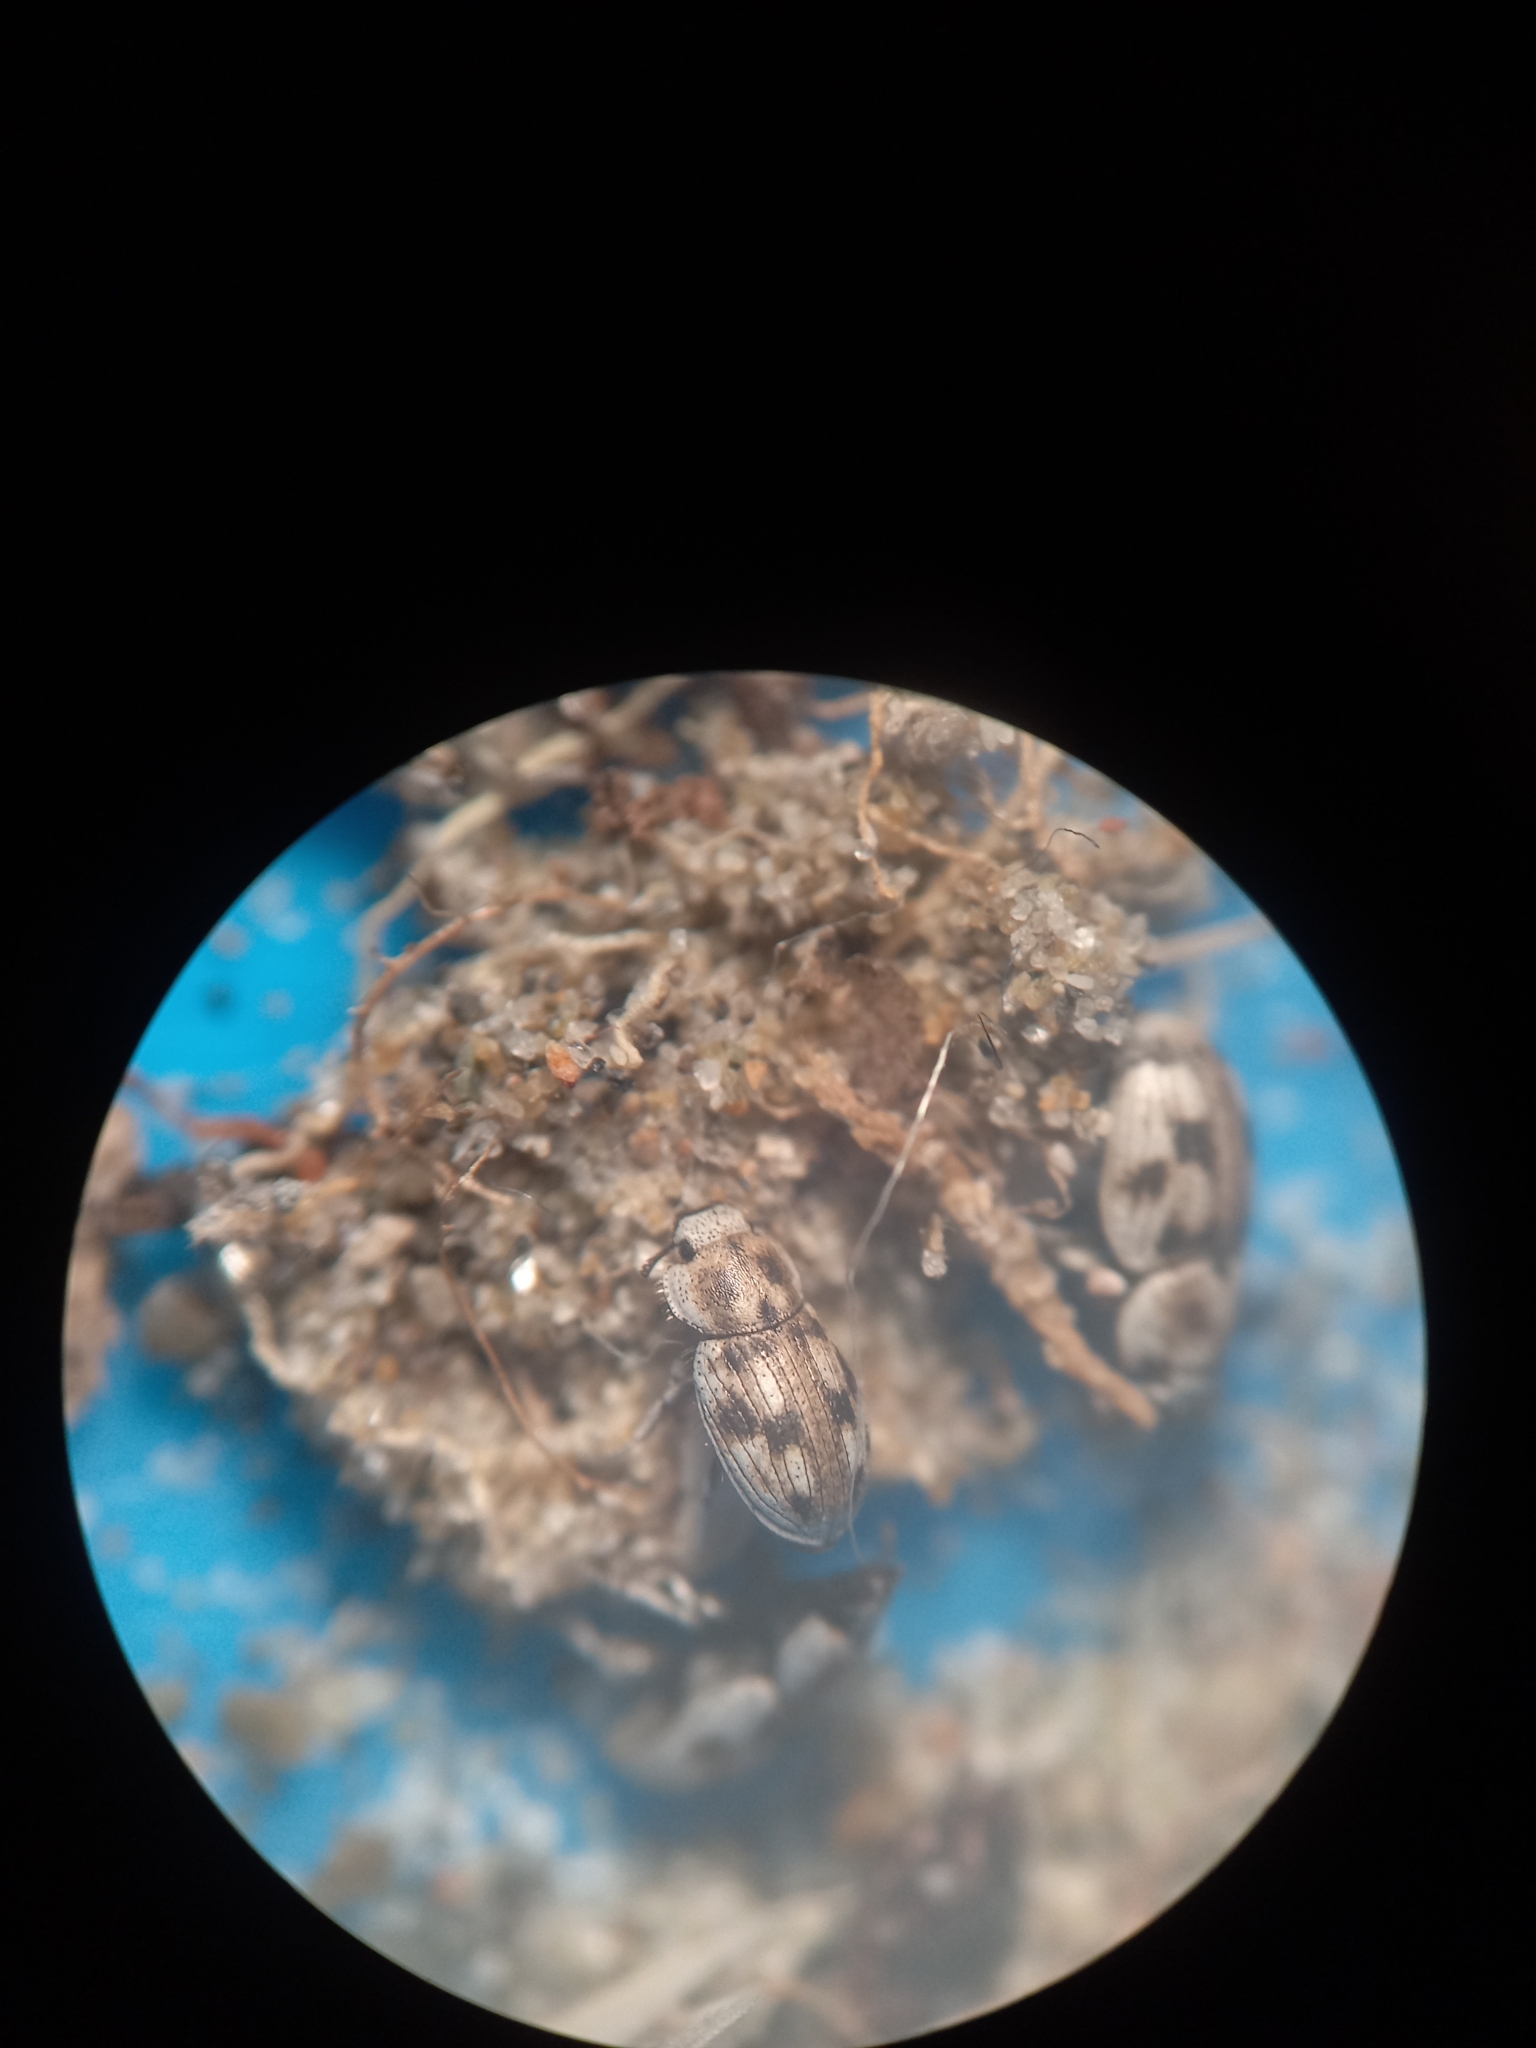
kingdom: Animalia
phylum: Arthropoda
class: Insecta
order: Coleoptera
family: Tenebrionidae
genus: Actizeta
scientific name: Actizeta
